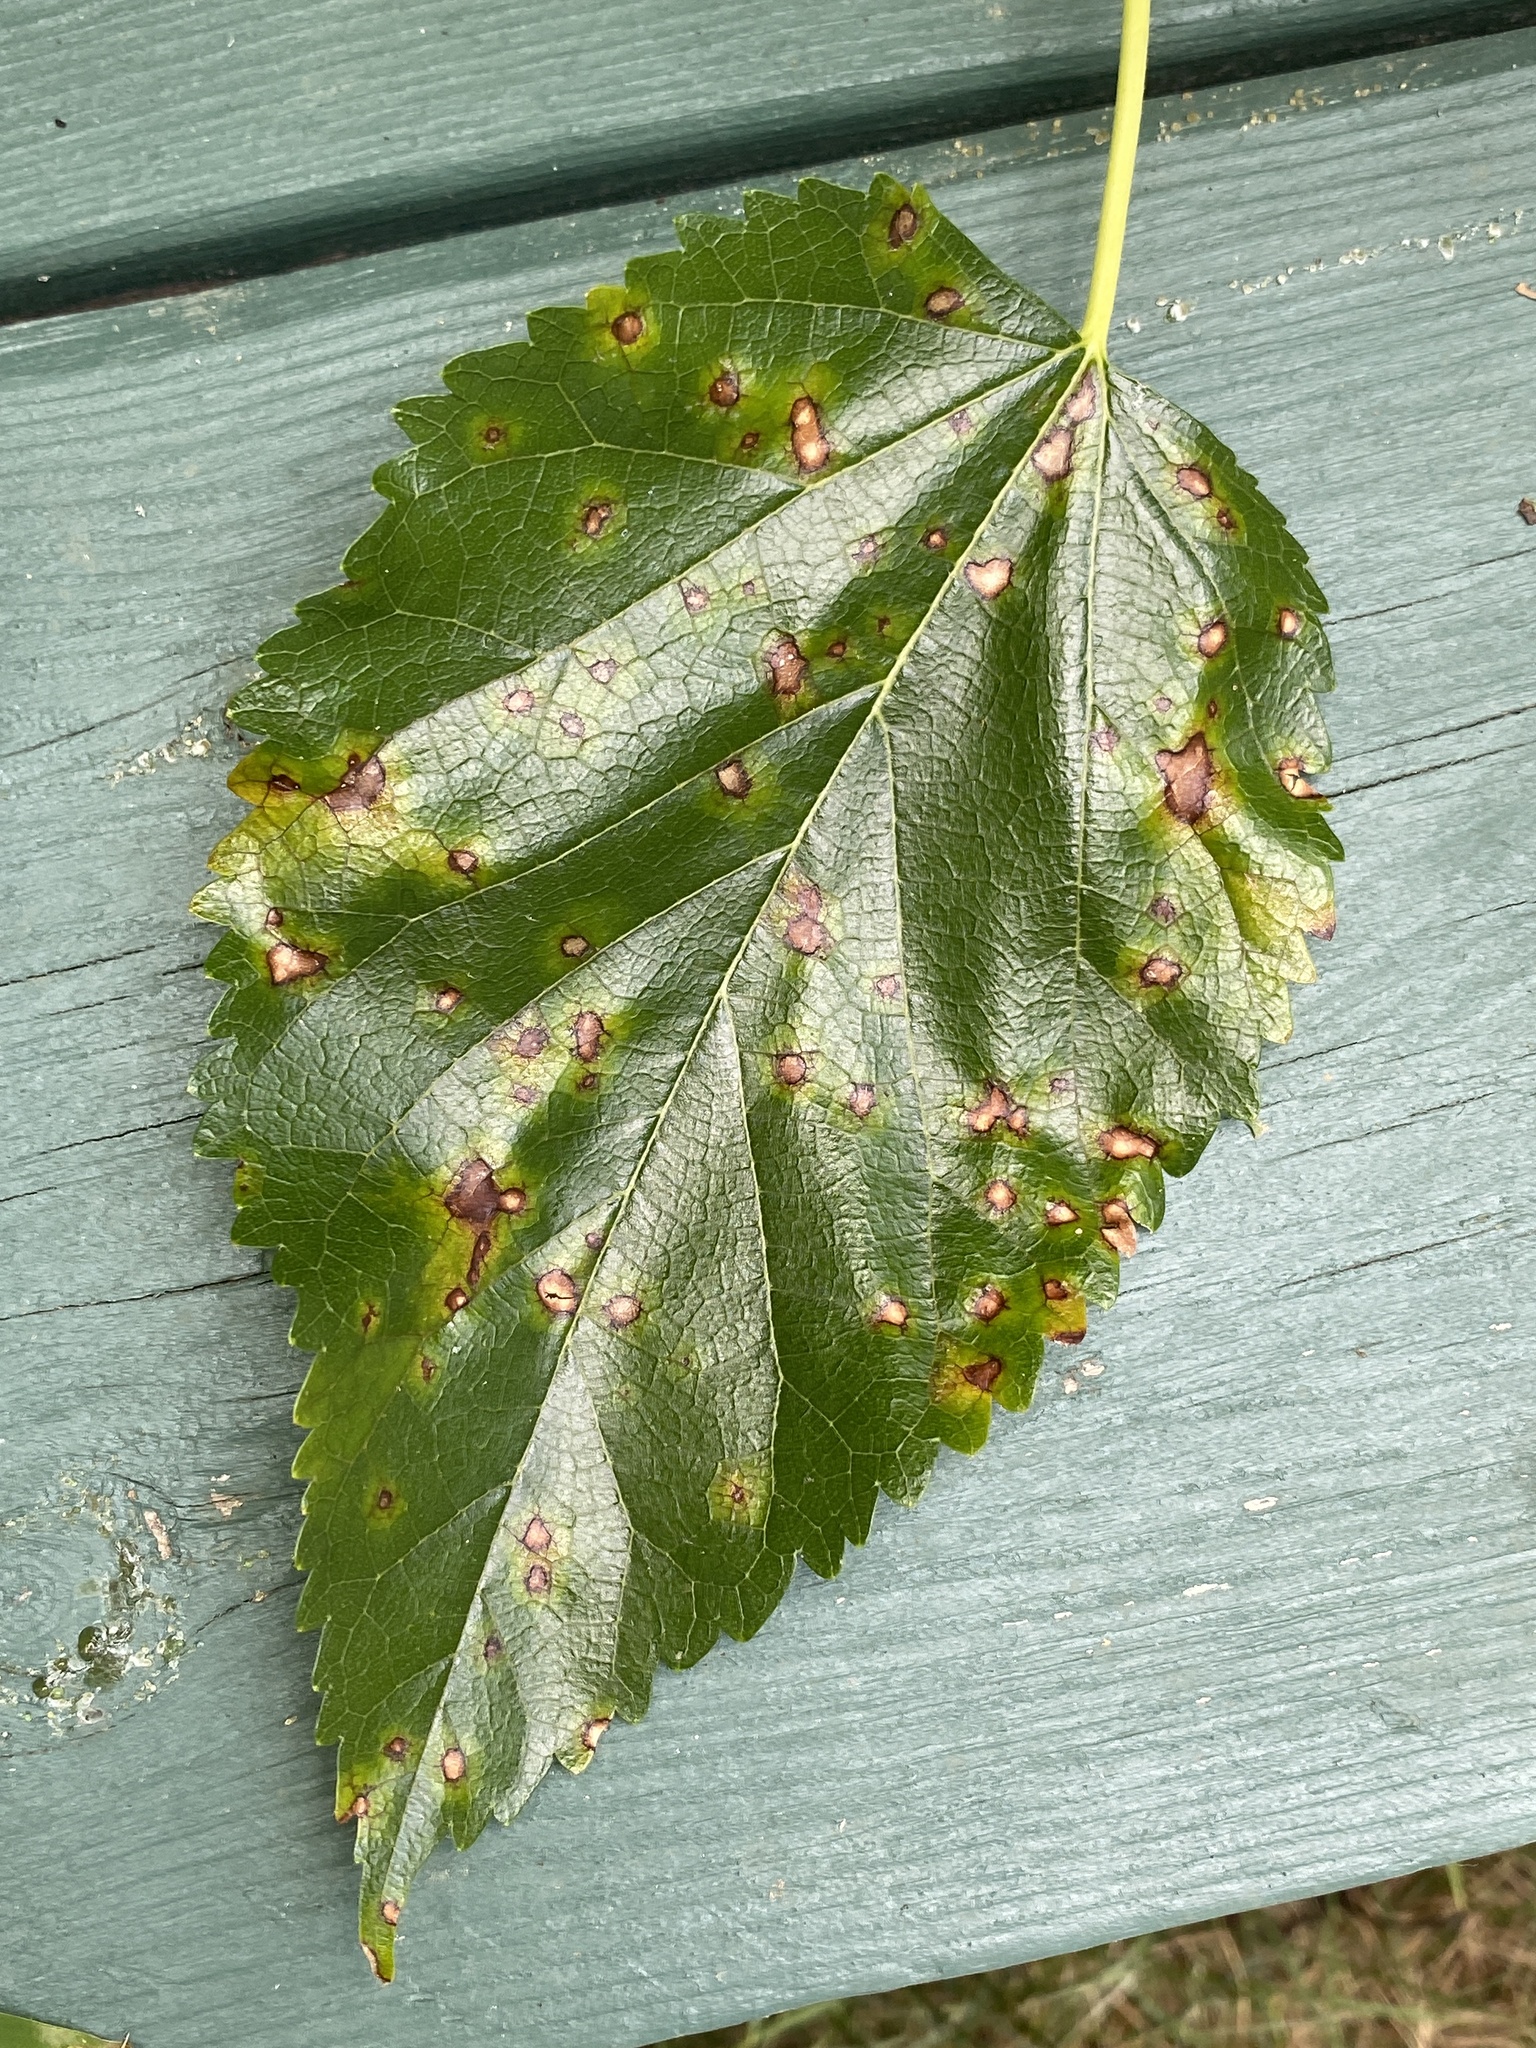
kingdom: Fungi
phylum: Ascomycota
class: Dothideomycetes
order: Mycosphaerellales
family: Mycosphaerellaceae
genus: Cercospora
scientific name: Cercospora moricola
